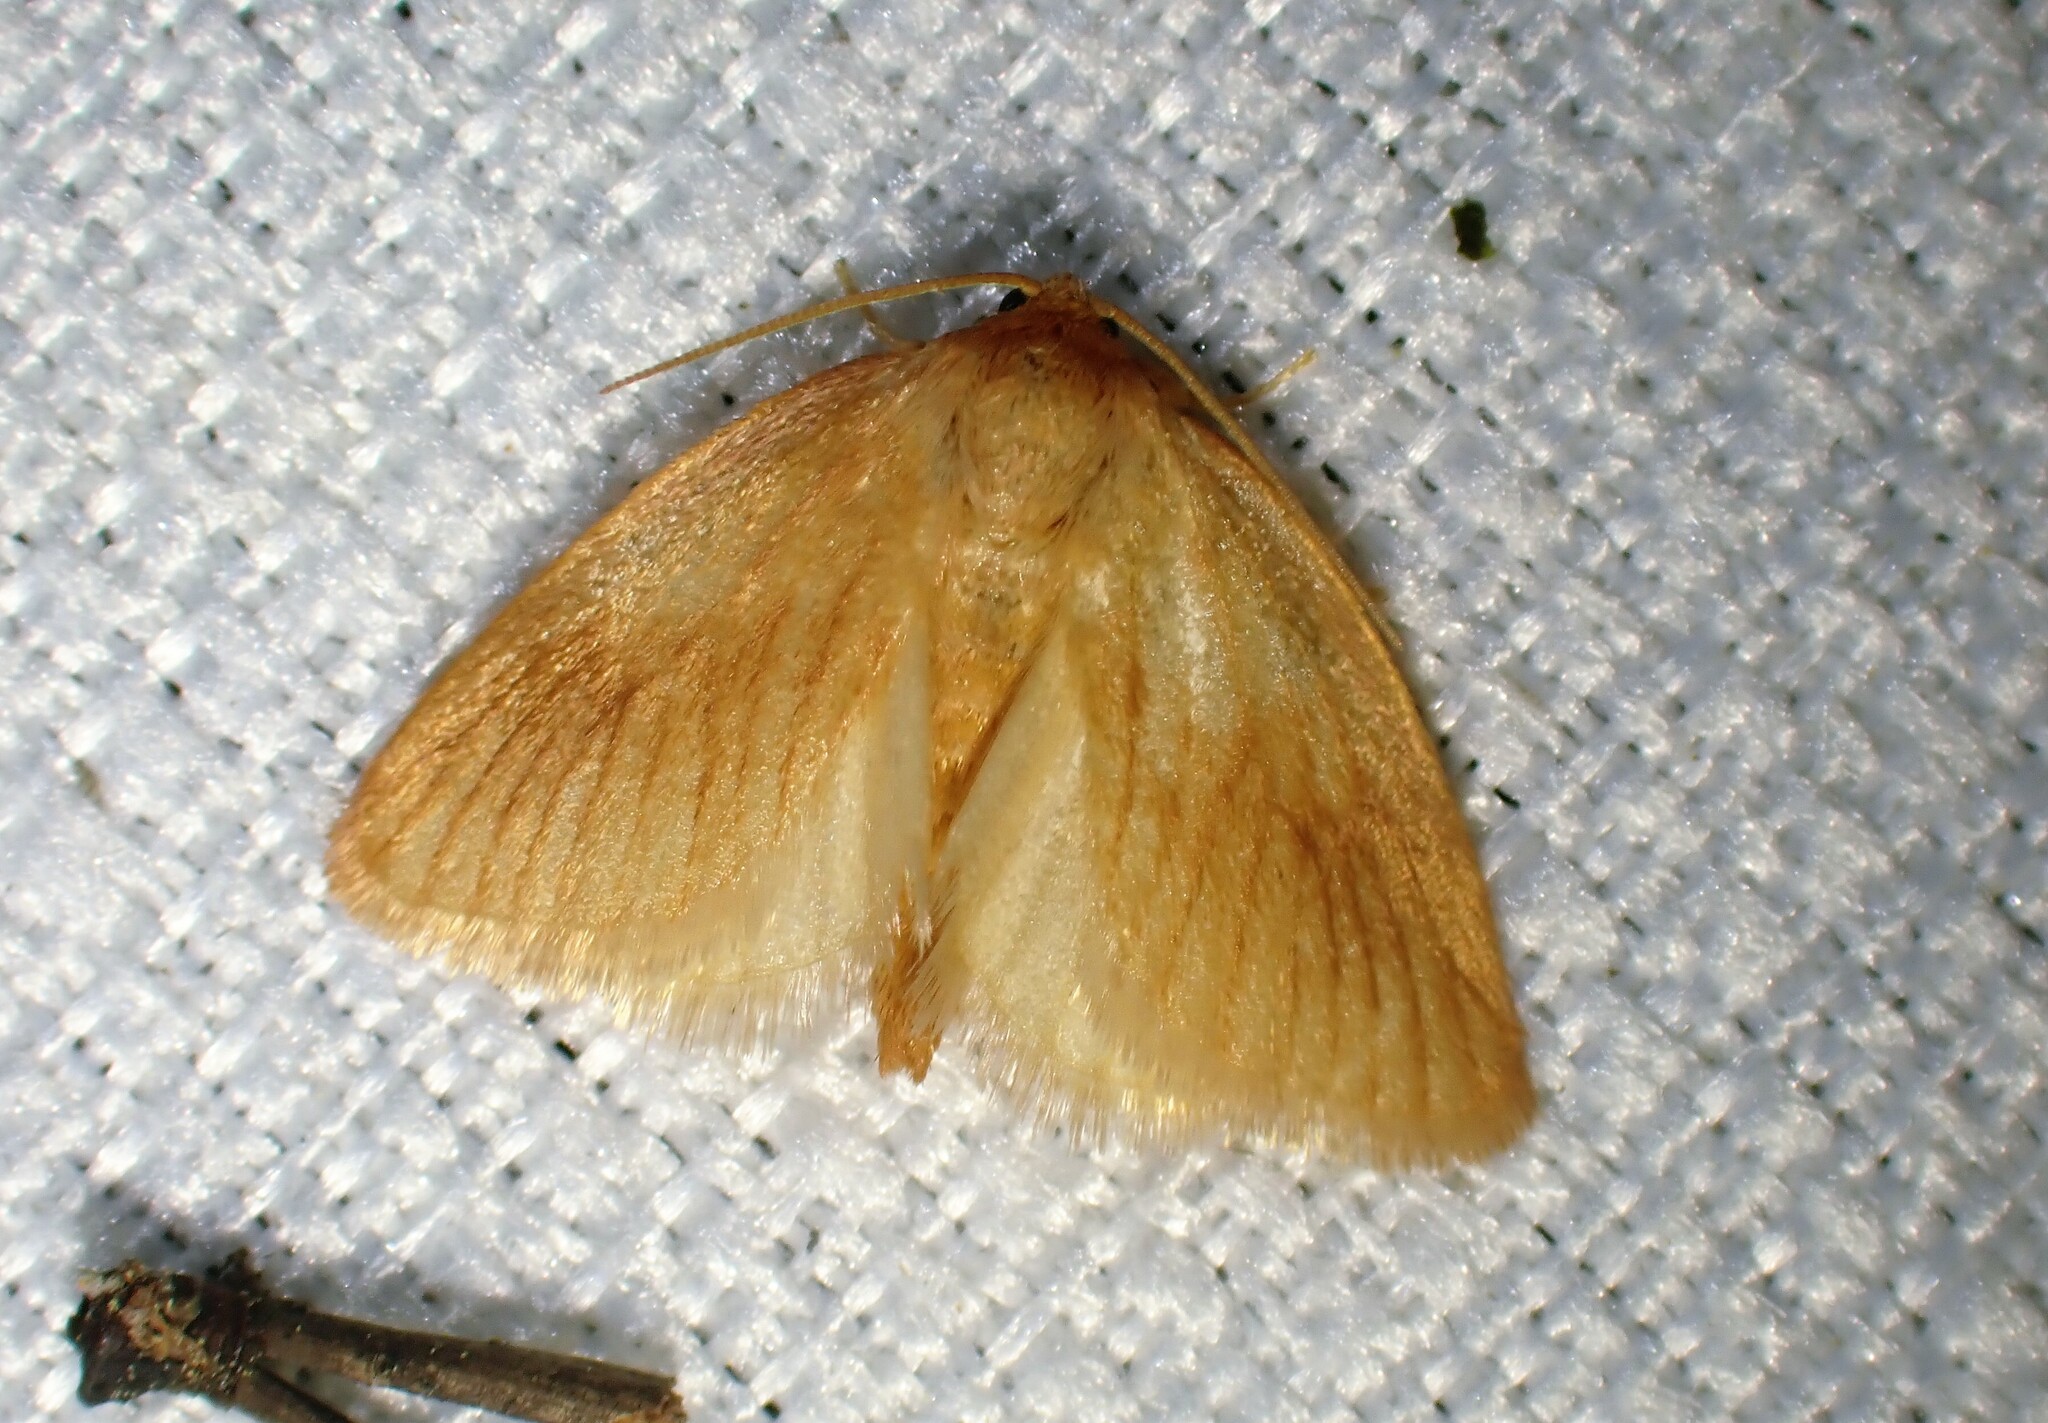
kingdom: Animalia
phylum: Arthropoda
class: Insecta
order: Lepidoptera
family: Limacodidae
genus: Tortricidia
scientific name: Tortricidia testacea
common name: Early button slug moth
